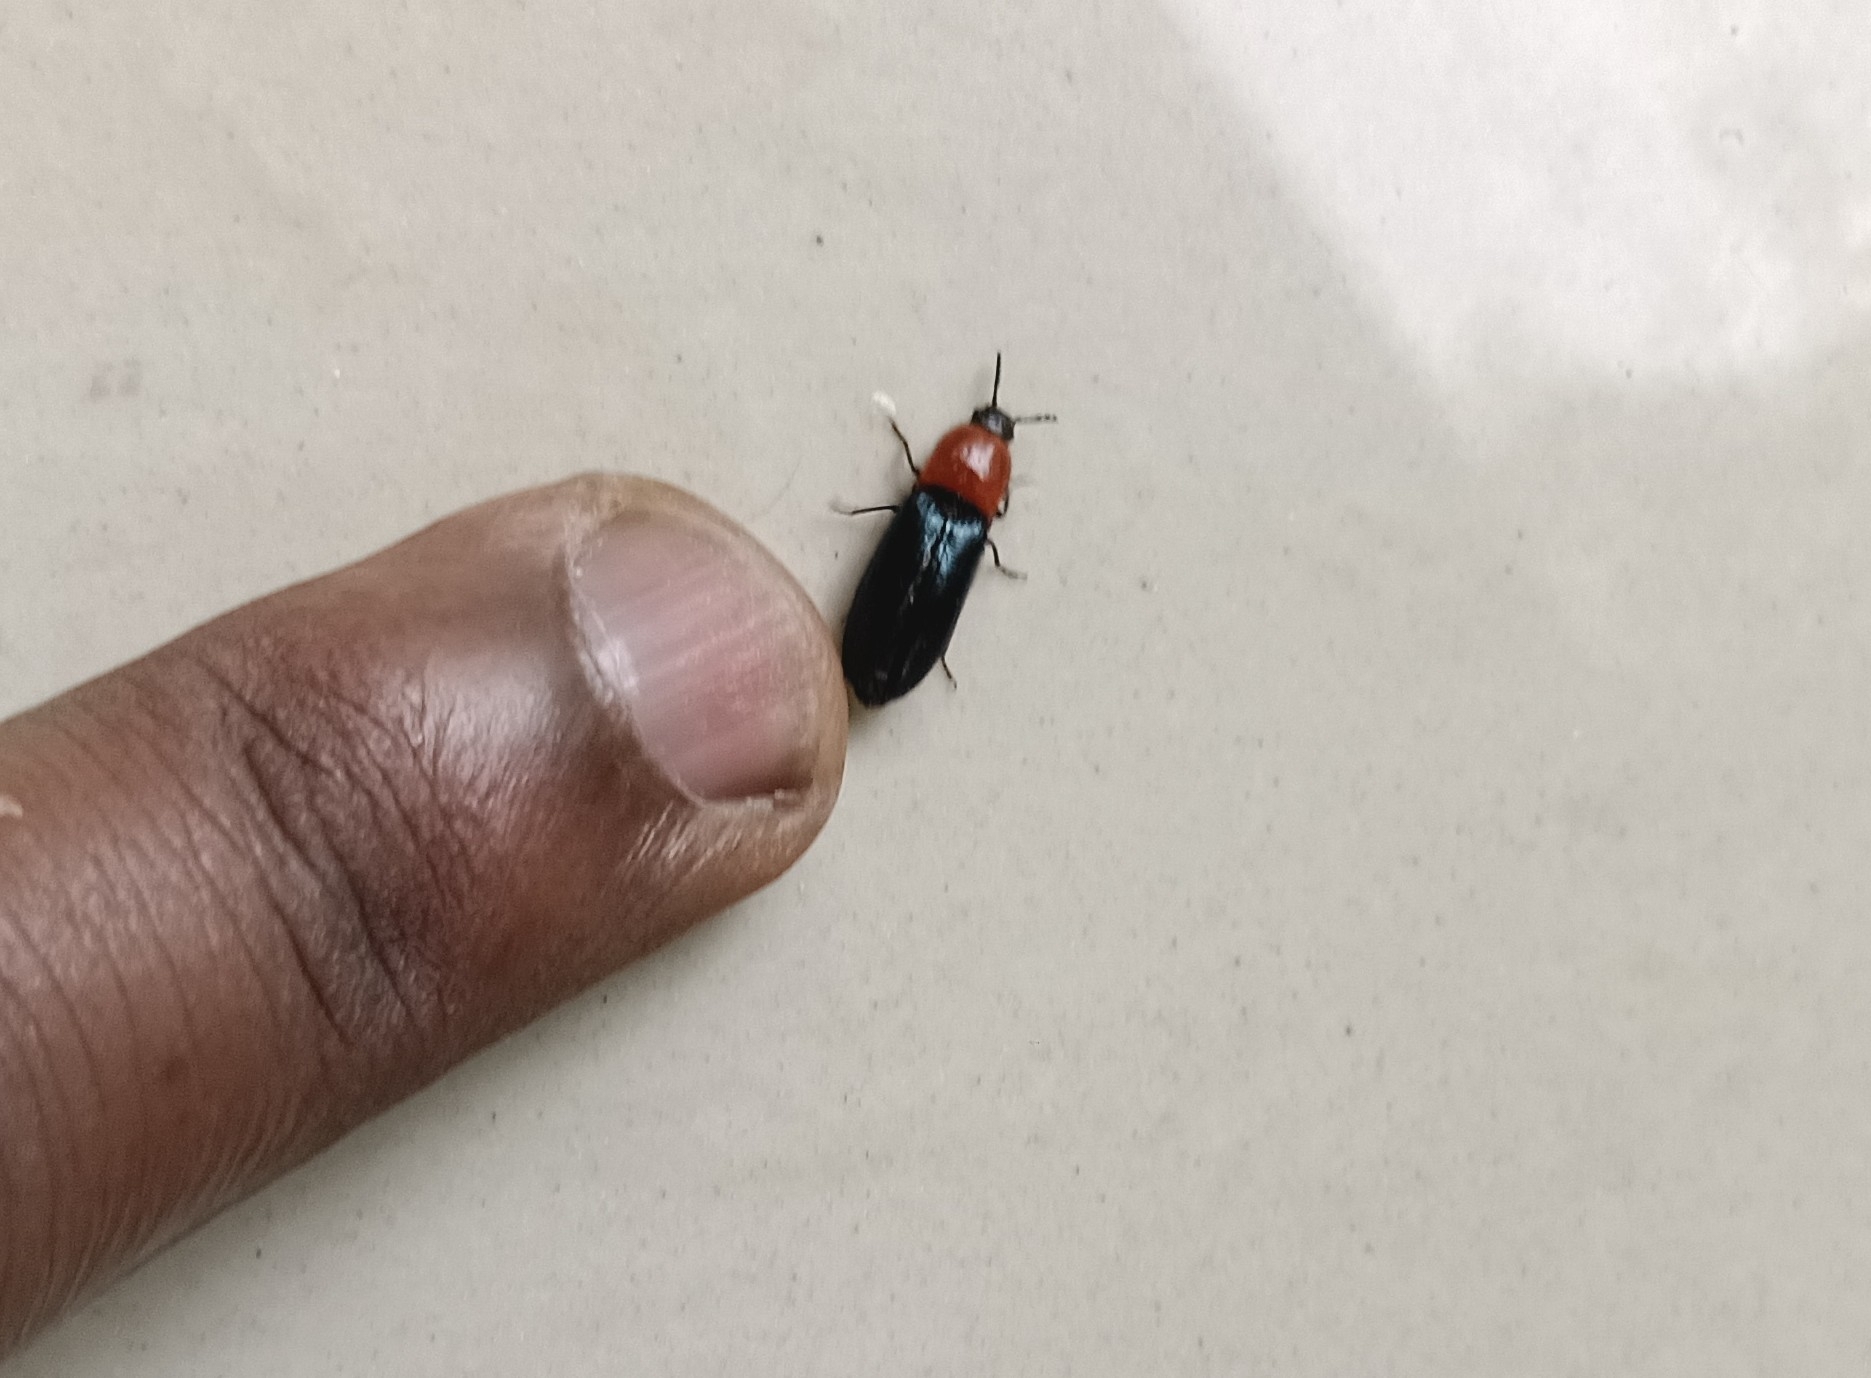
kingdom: Animalia
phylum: Arthropoda
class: Insecta
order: Coleoptera
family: Elateridae
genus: Lampropsephus
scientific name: Lampropsephus sulcatus
